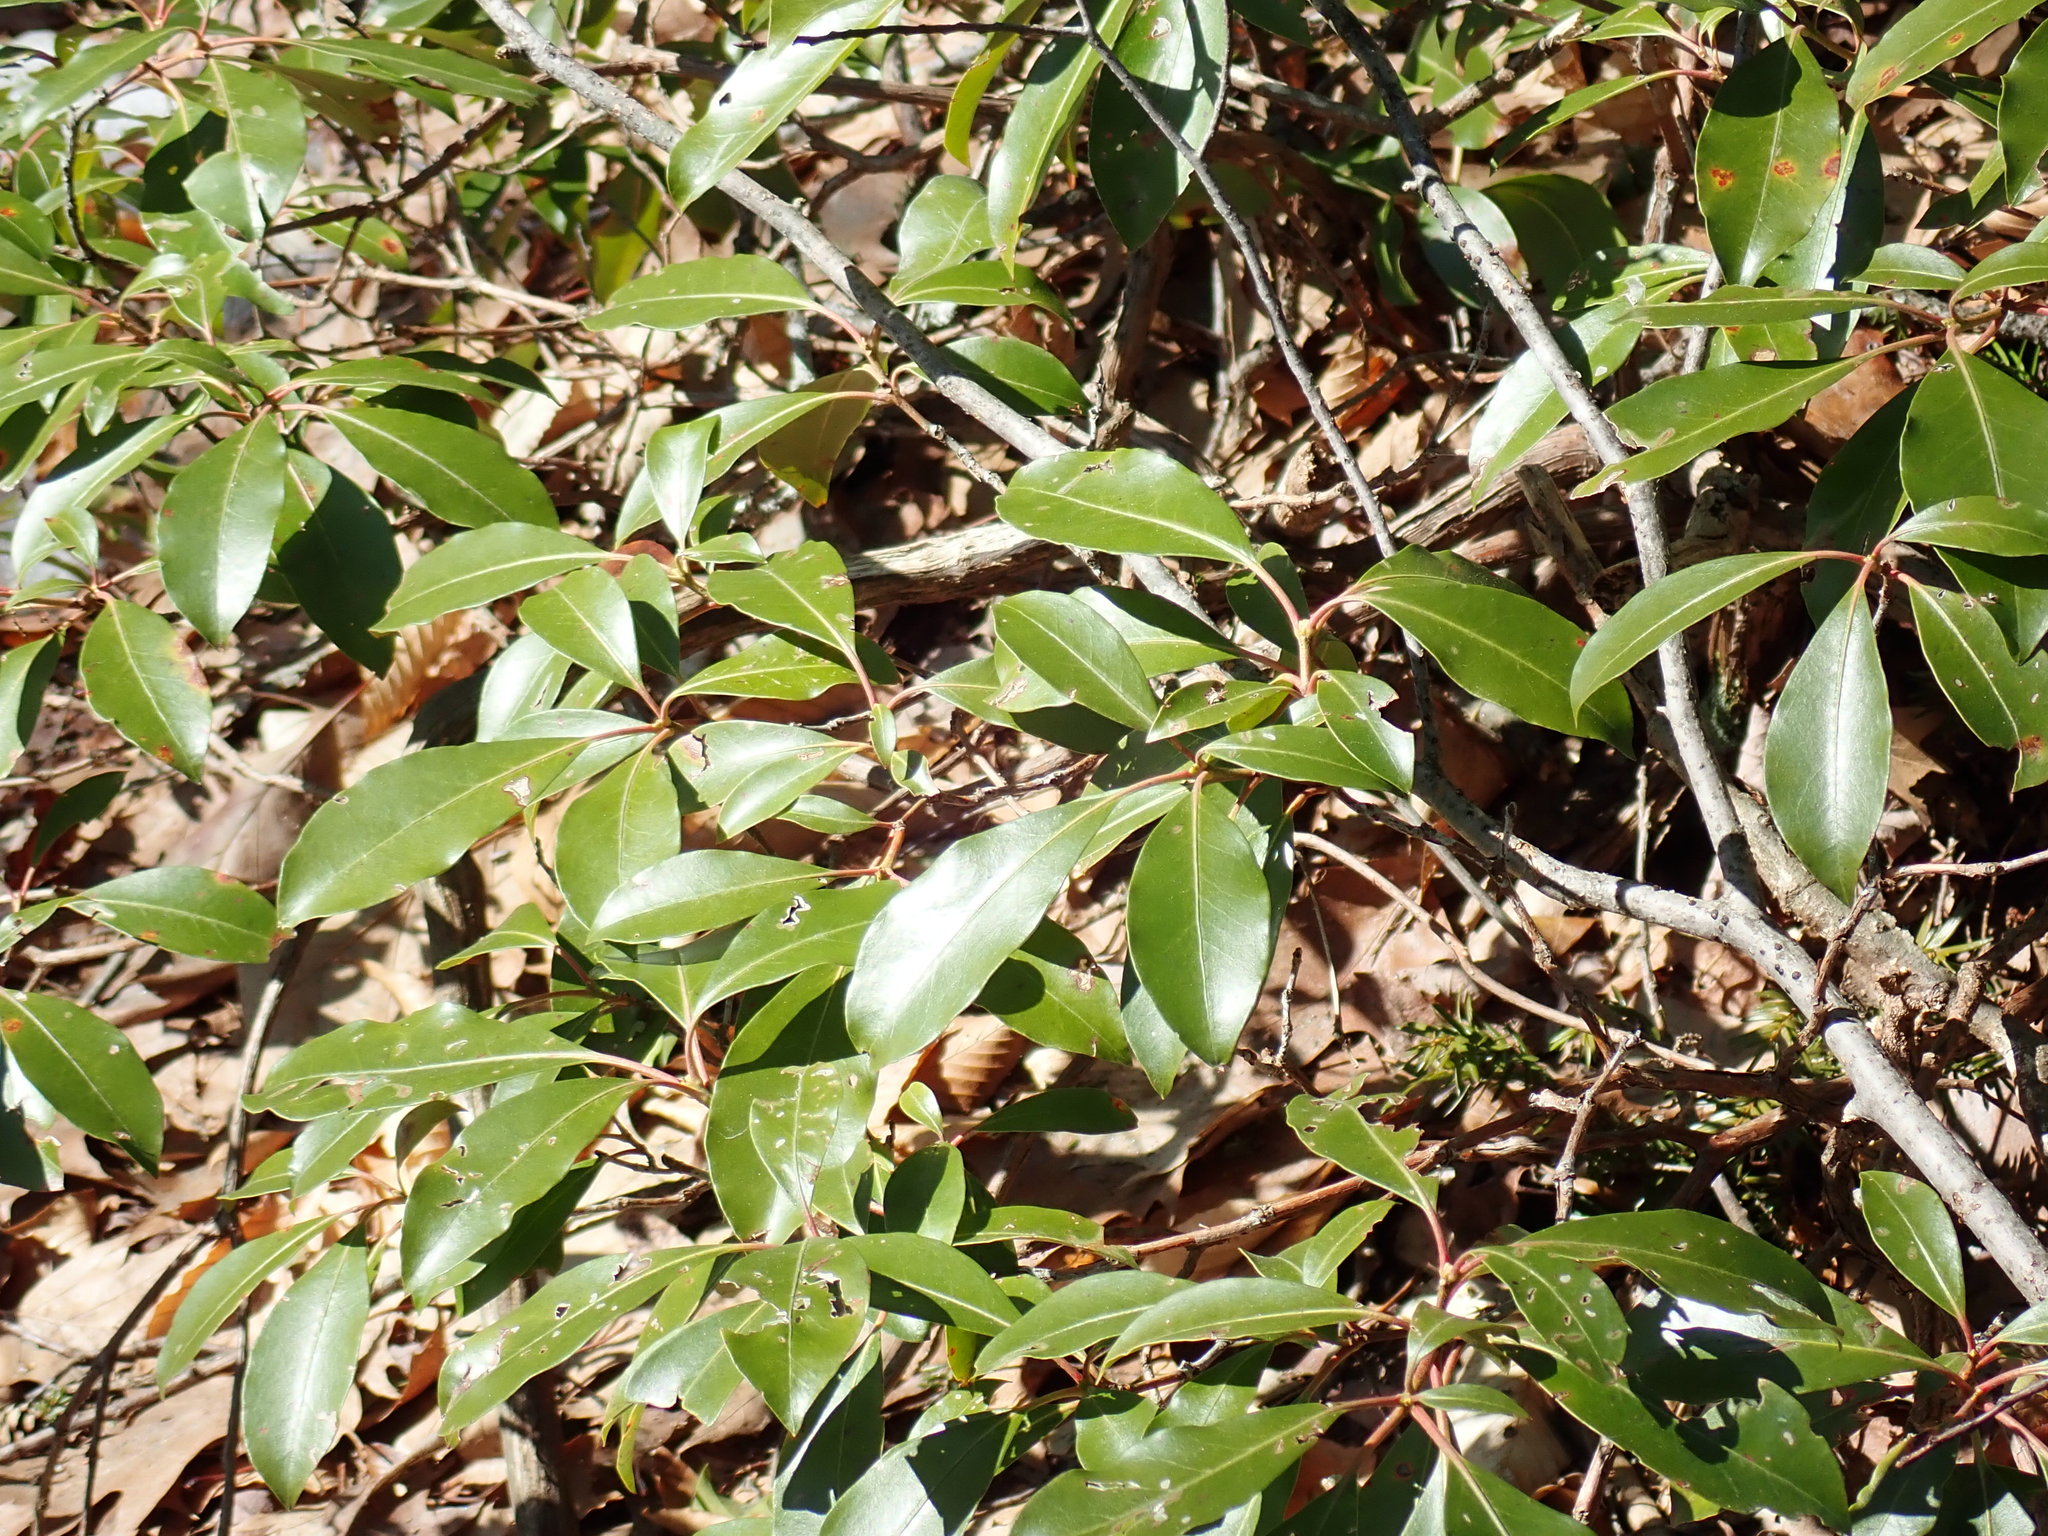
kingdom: Plantae
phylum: Tracheophyta
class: Magnoliopsida
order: Ericales
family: Ericaceae
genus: Kalmia
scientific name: Kalmia latifolia
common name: Mountain-laurel
